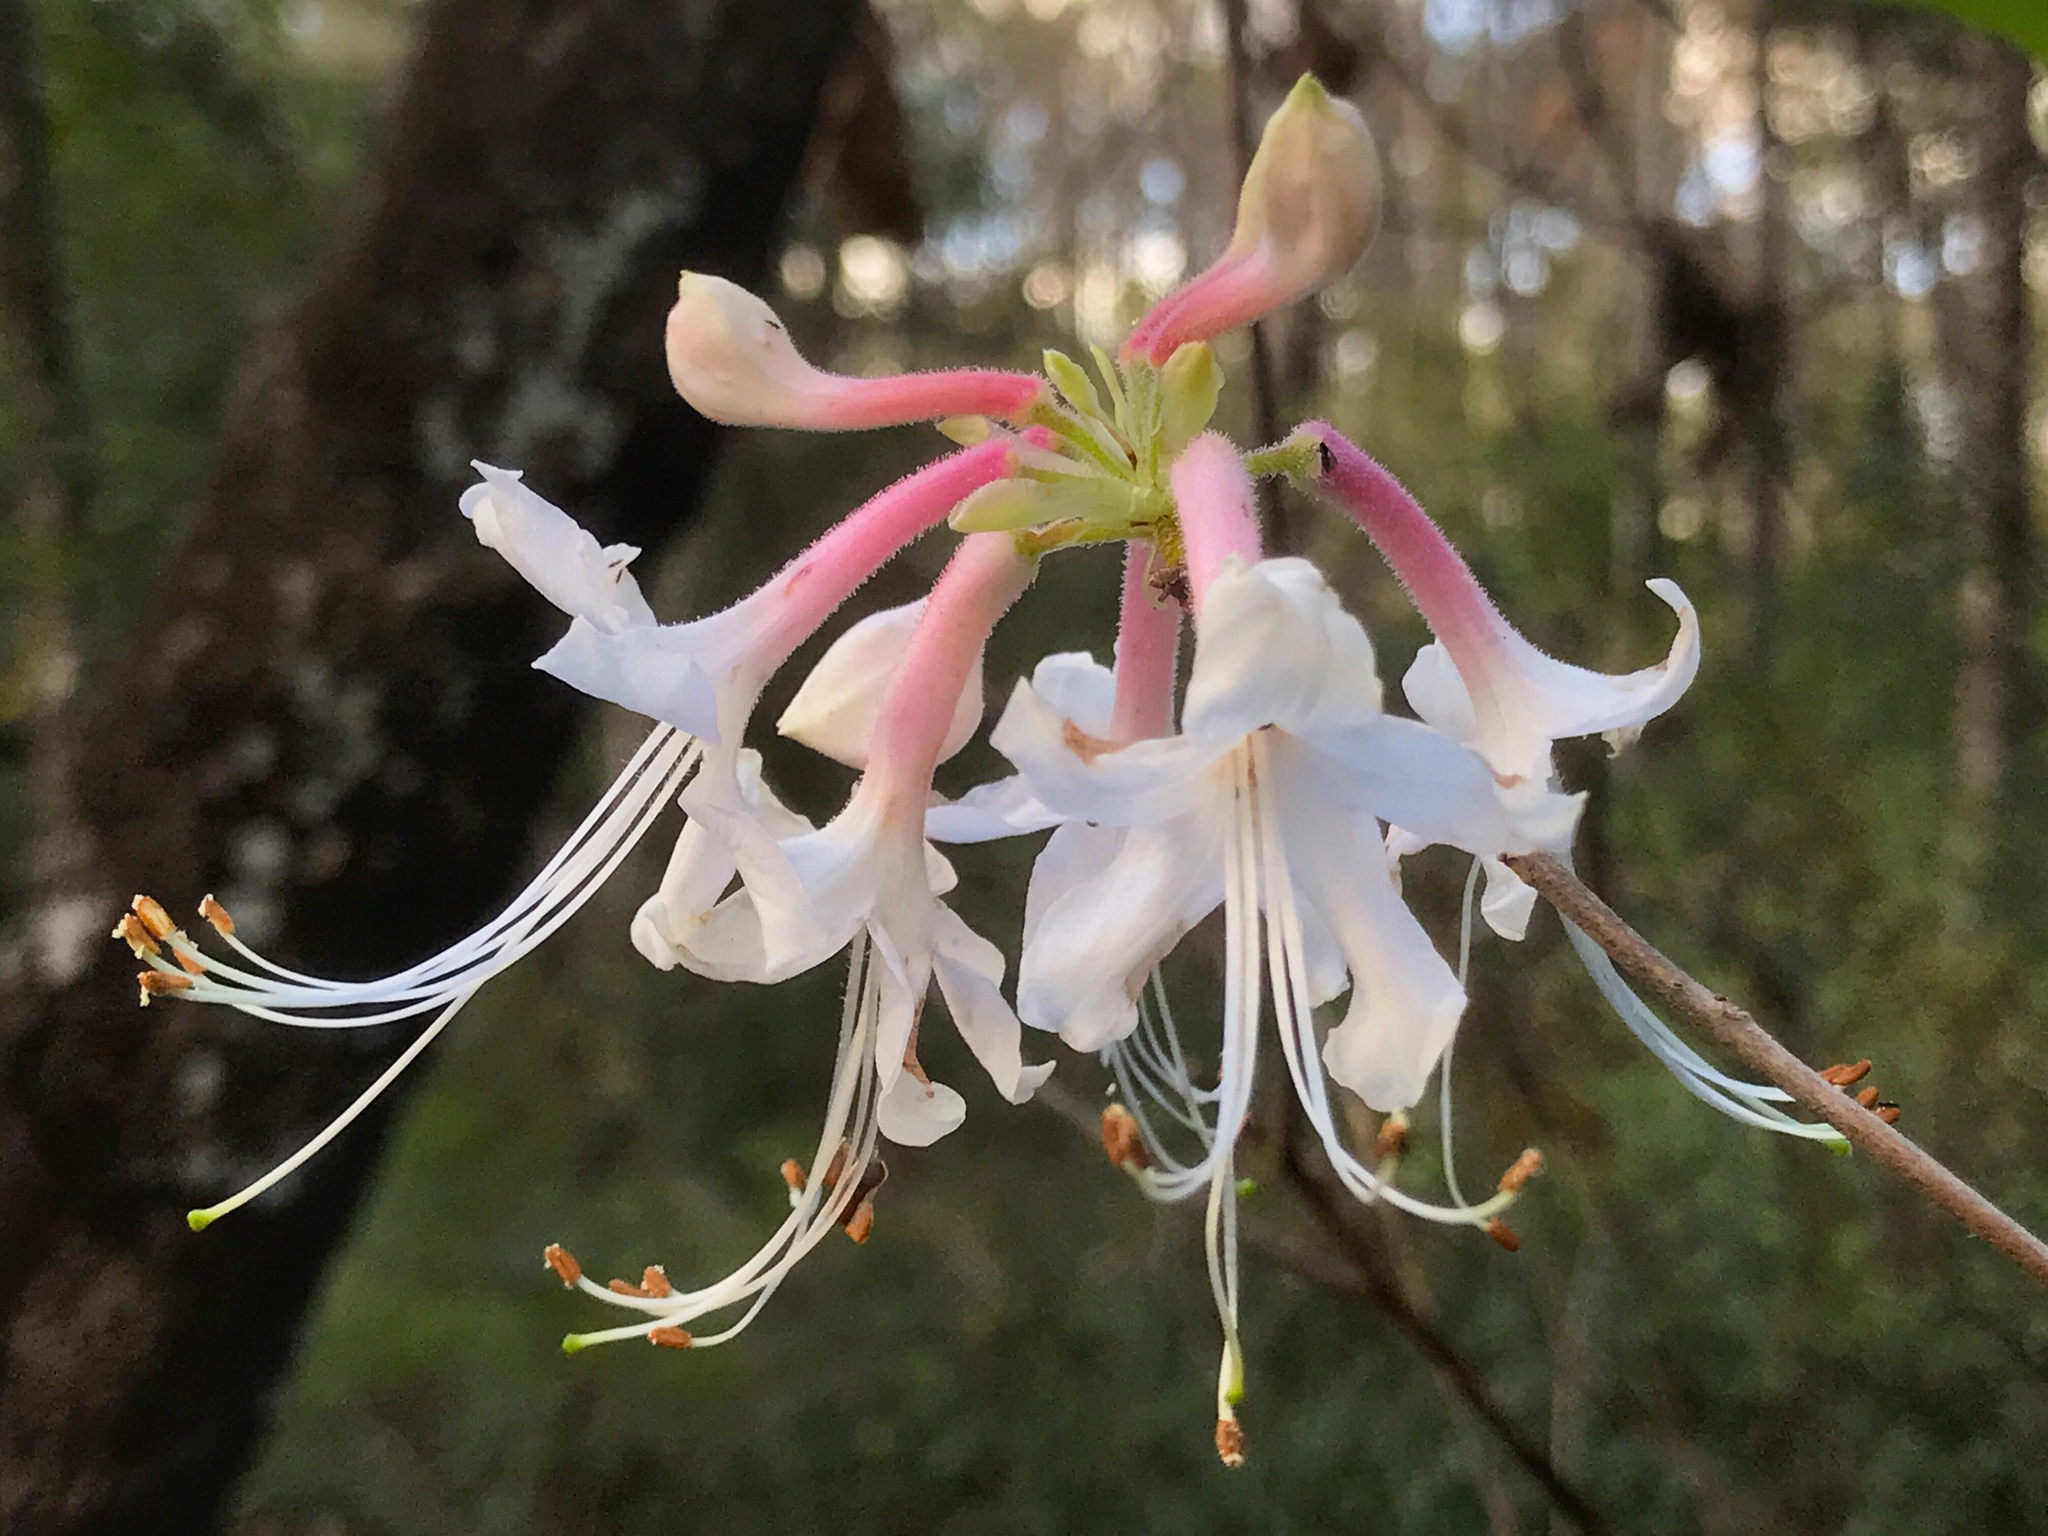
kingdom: Plantae
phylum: Tracheophyta
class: Magnoliopsida
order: Ericales
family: Ericaceae
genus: Rhododendron
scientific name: Rhododendron canescens
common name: Mountain azalea
